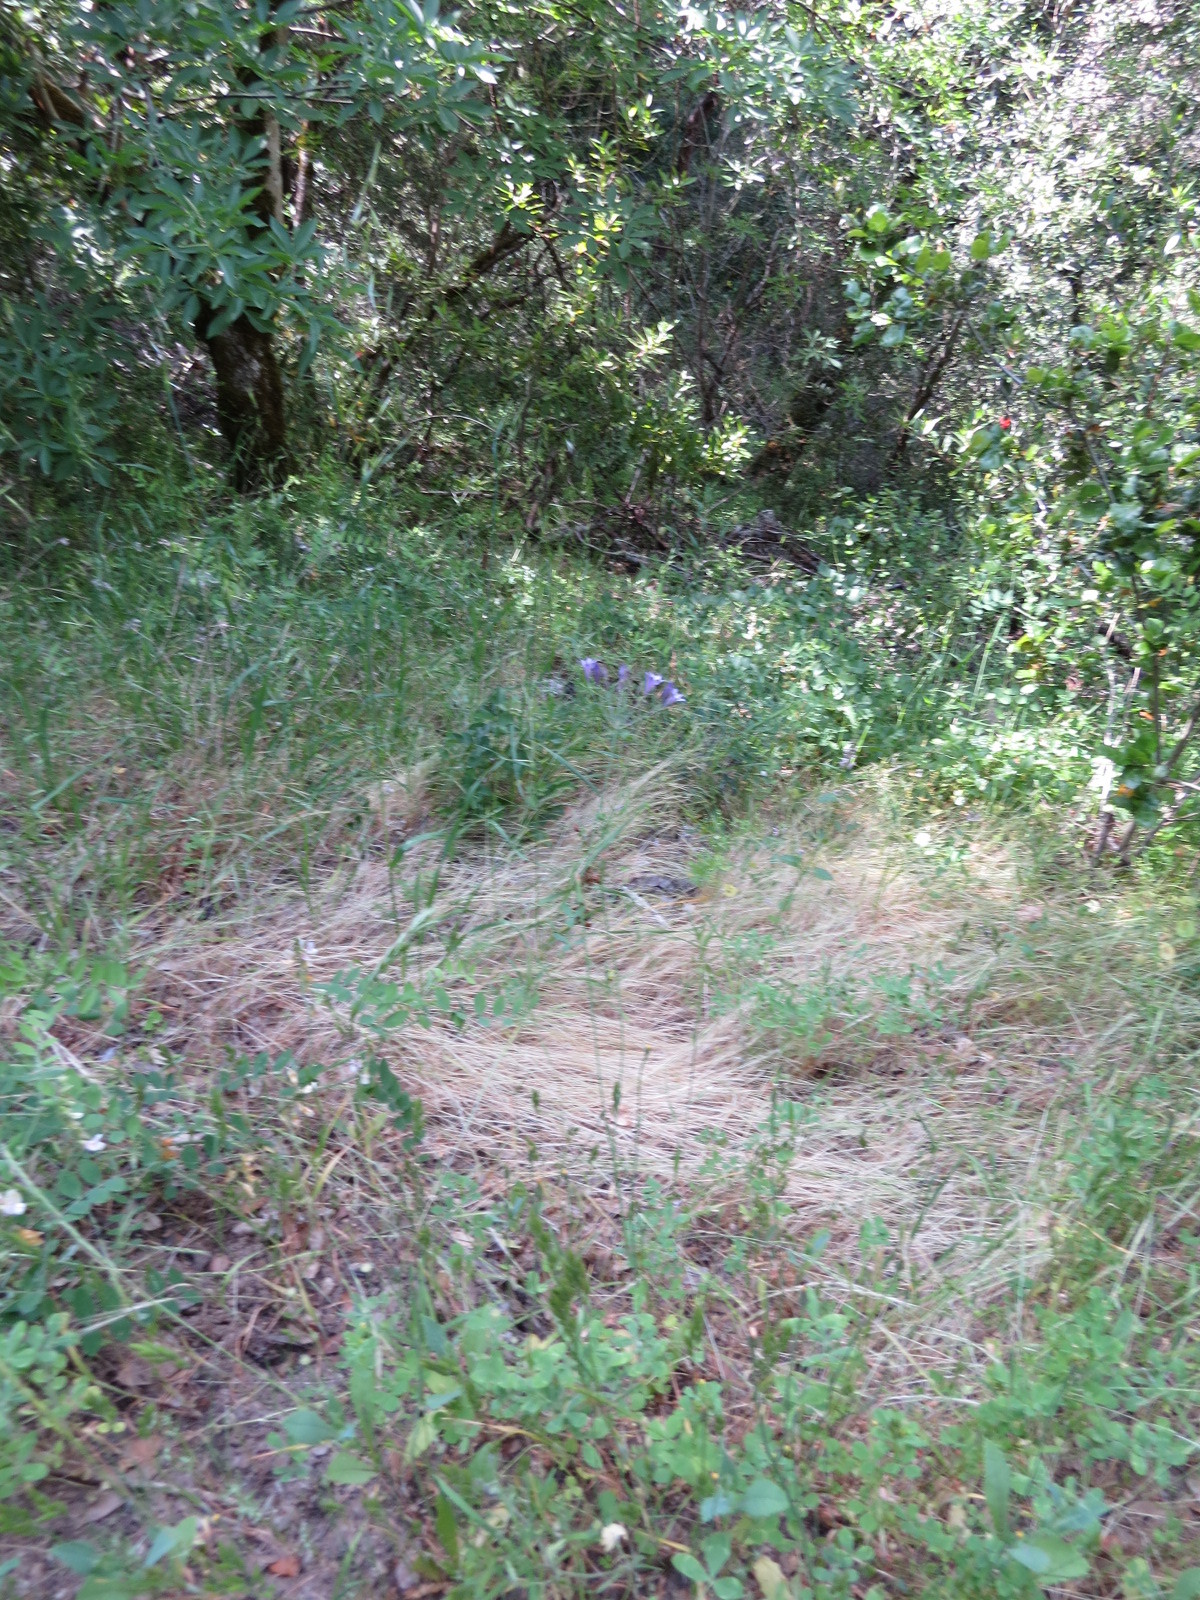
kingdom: Plantae
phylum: Tracheophyta
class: Liliopsida
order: Asparagales
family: Asparagaceae
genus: Triteleia
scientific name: Triteleia laxa
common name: Triplet-lily
